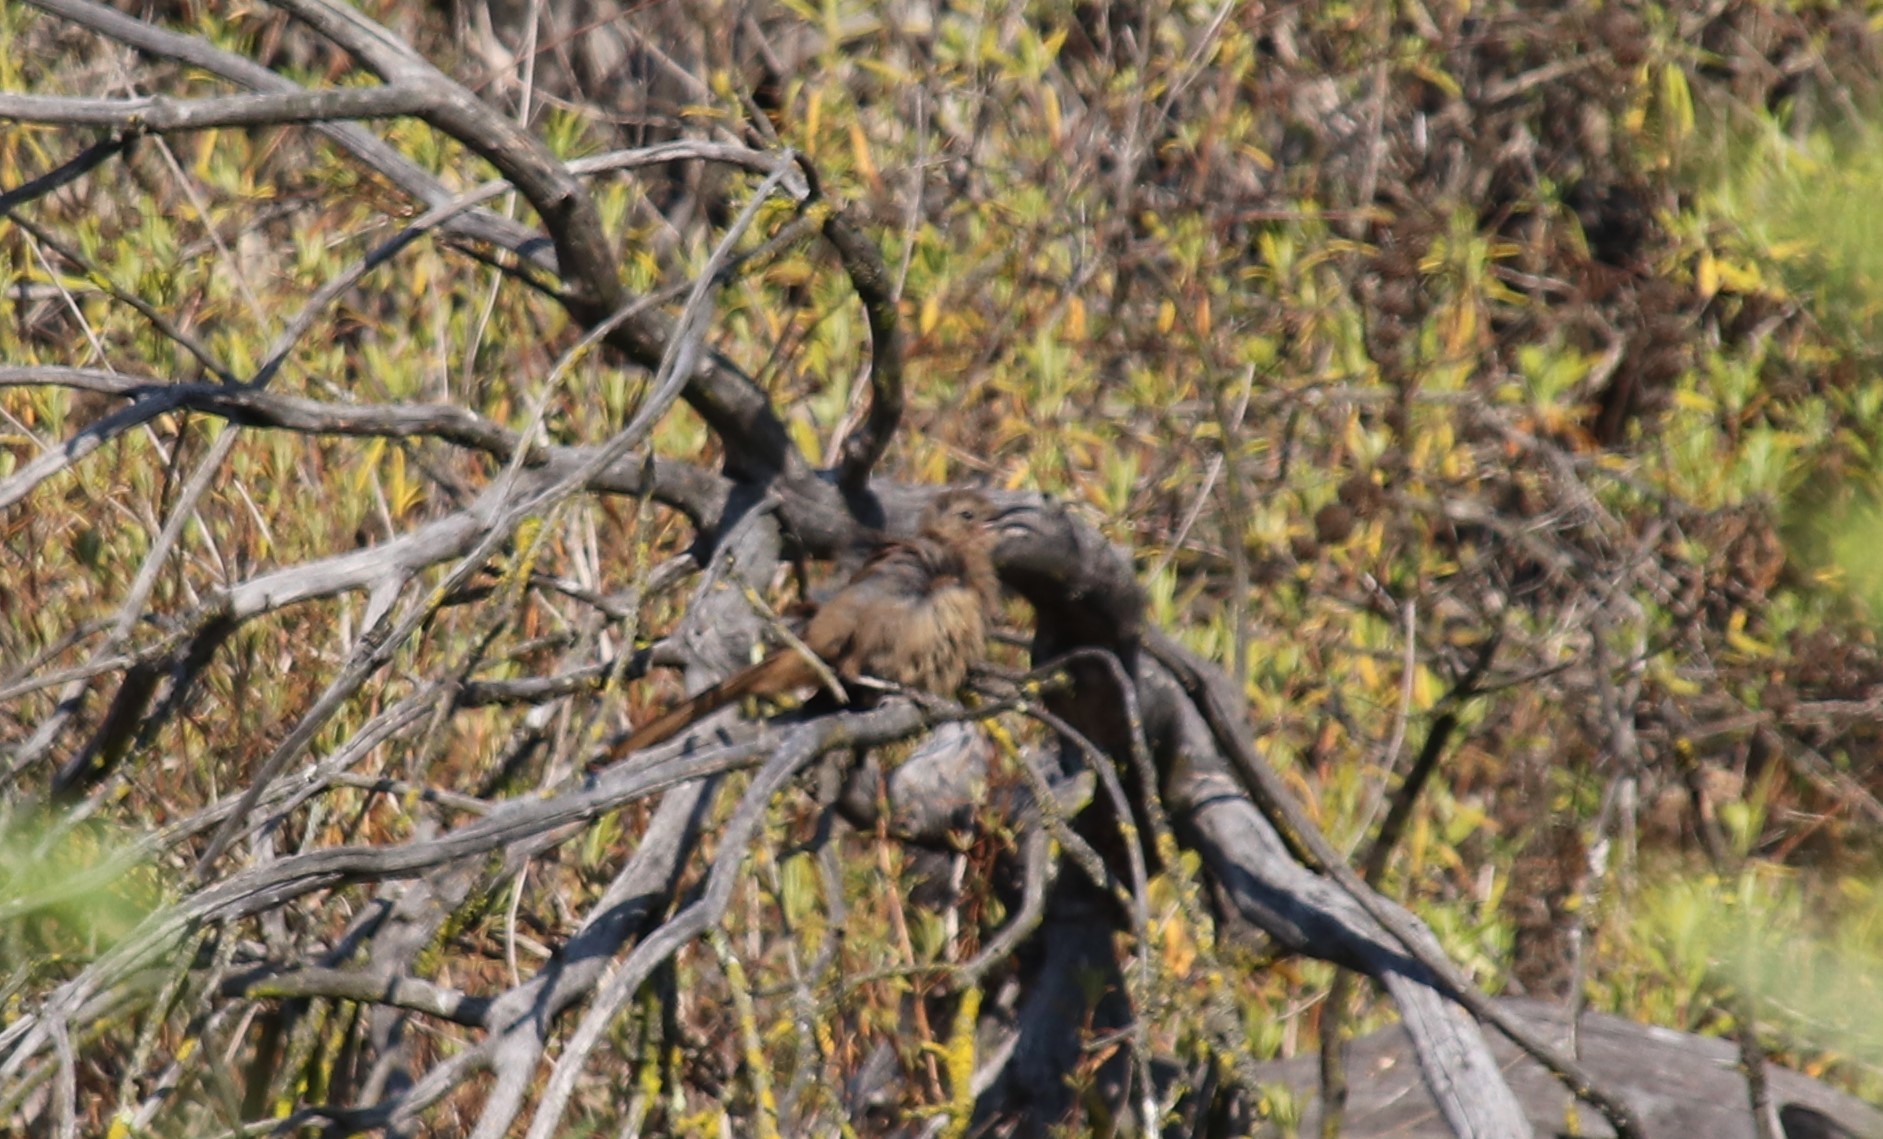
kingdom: Animalia
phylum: Chordata
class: Aves
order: Passeriformes
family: Mimidae
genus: Toxostoma
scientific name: Toxostoma redivivum
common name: California thrasher
